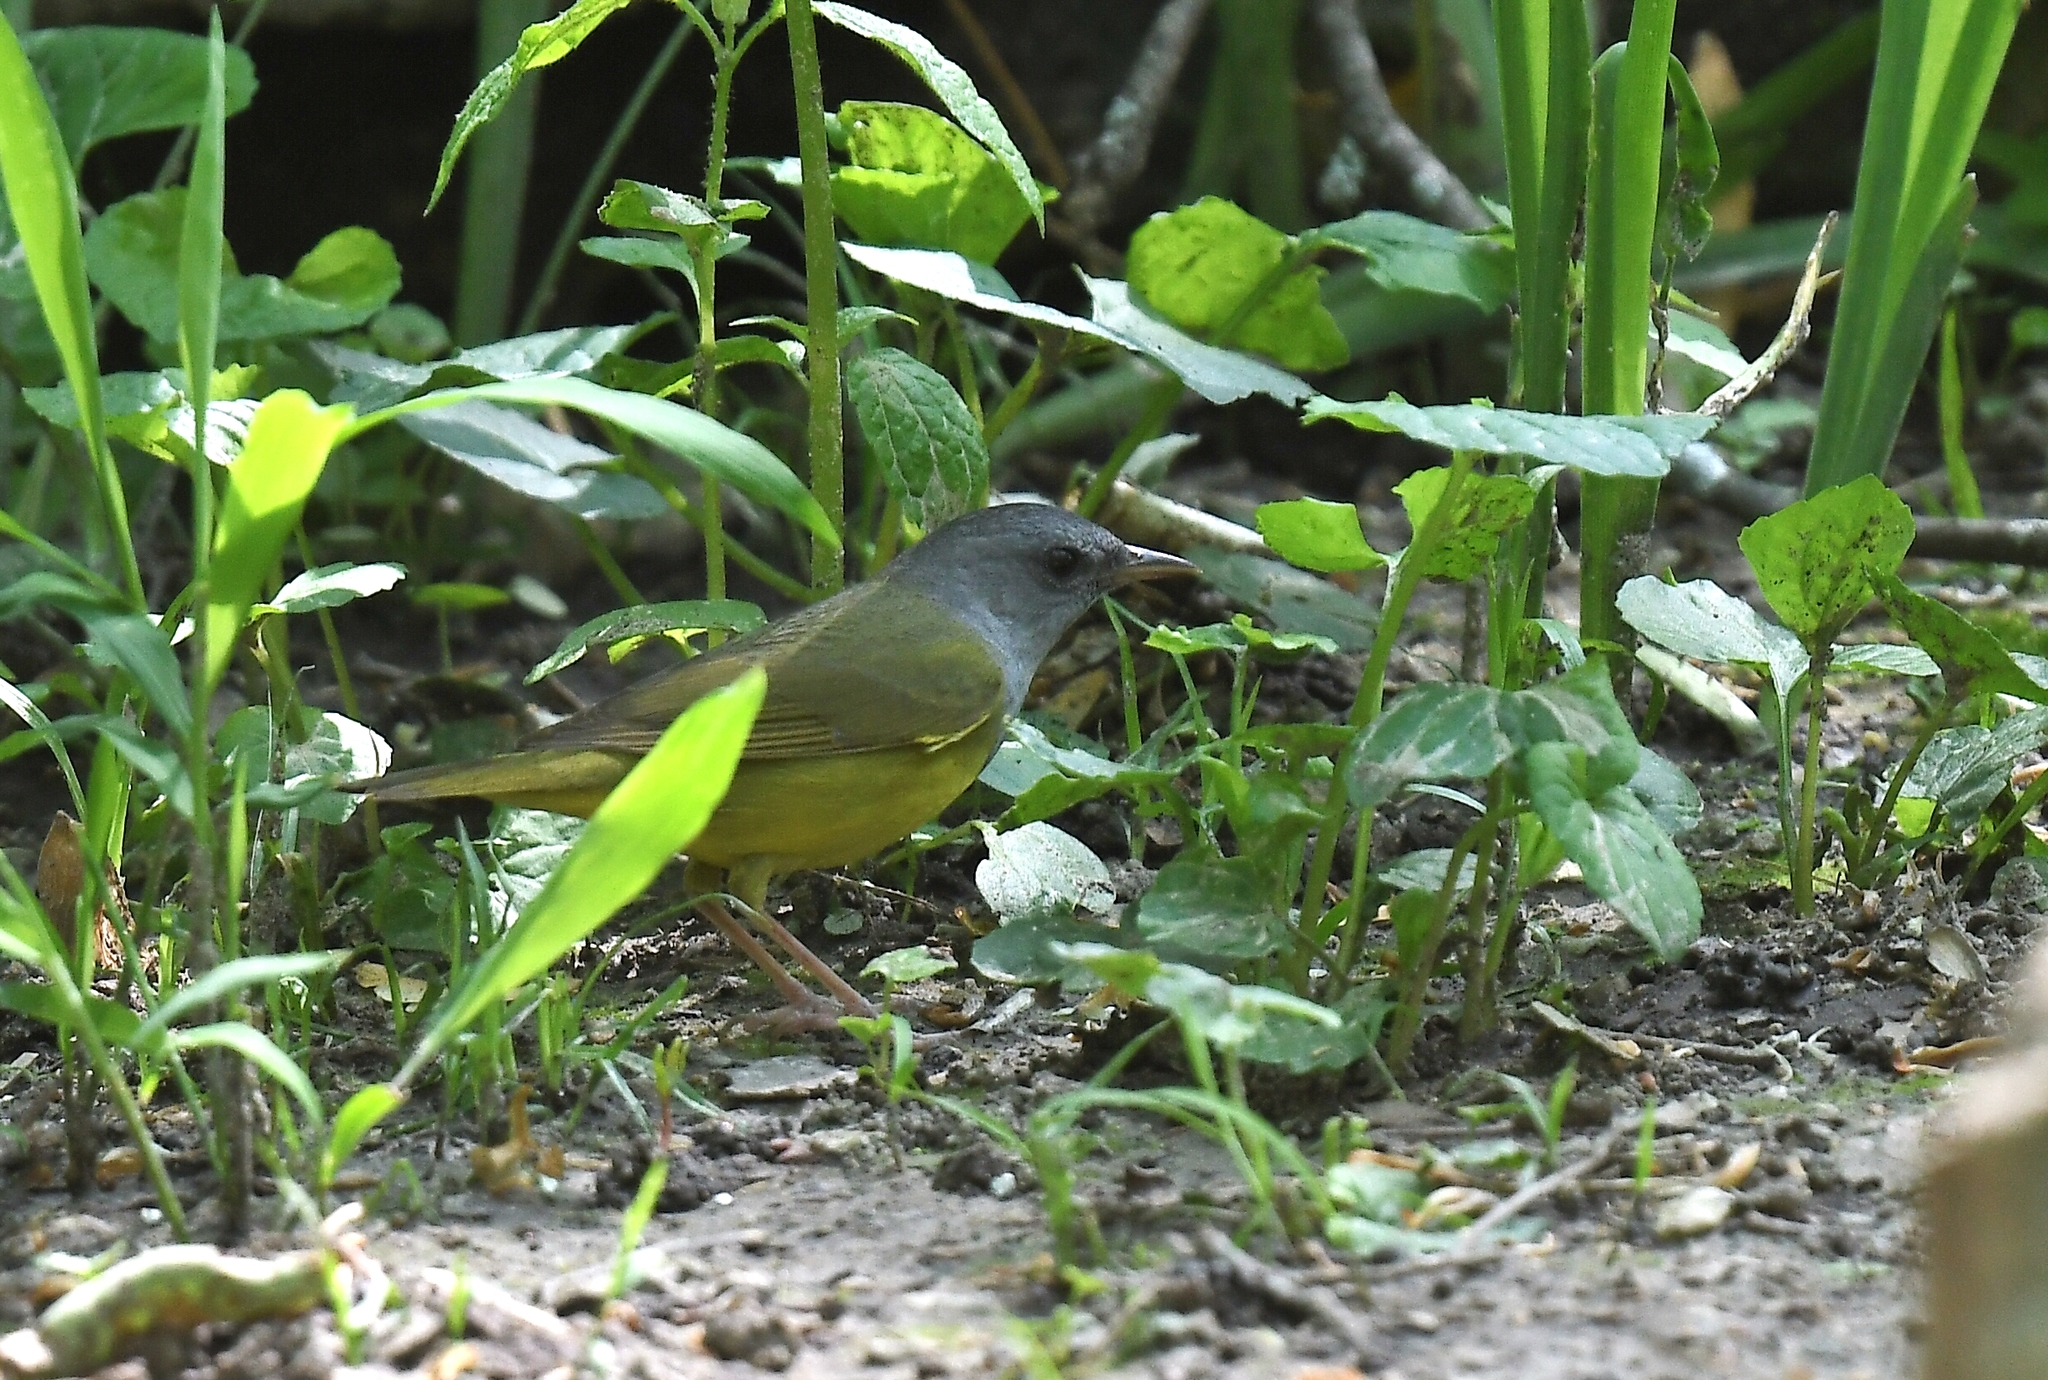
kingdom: Animalia
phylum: Chordata
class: Aves
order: Passeriformes
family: Parulidae
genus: Geothlypis
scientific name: Geothlypis philadelphia
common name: Mourning warbler
